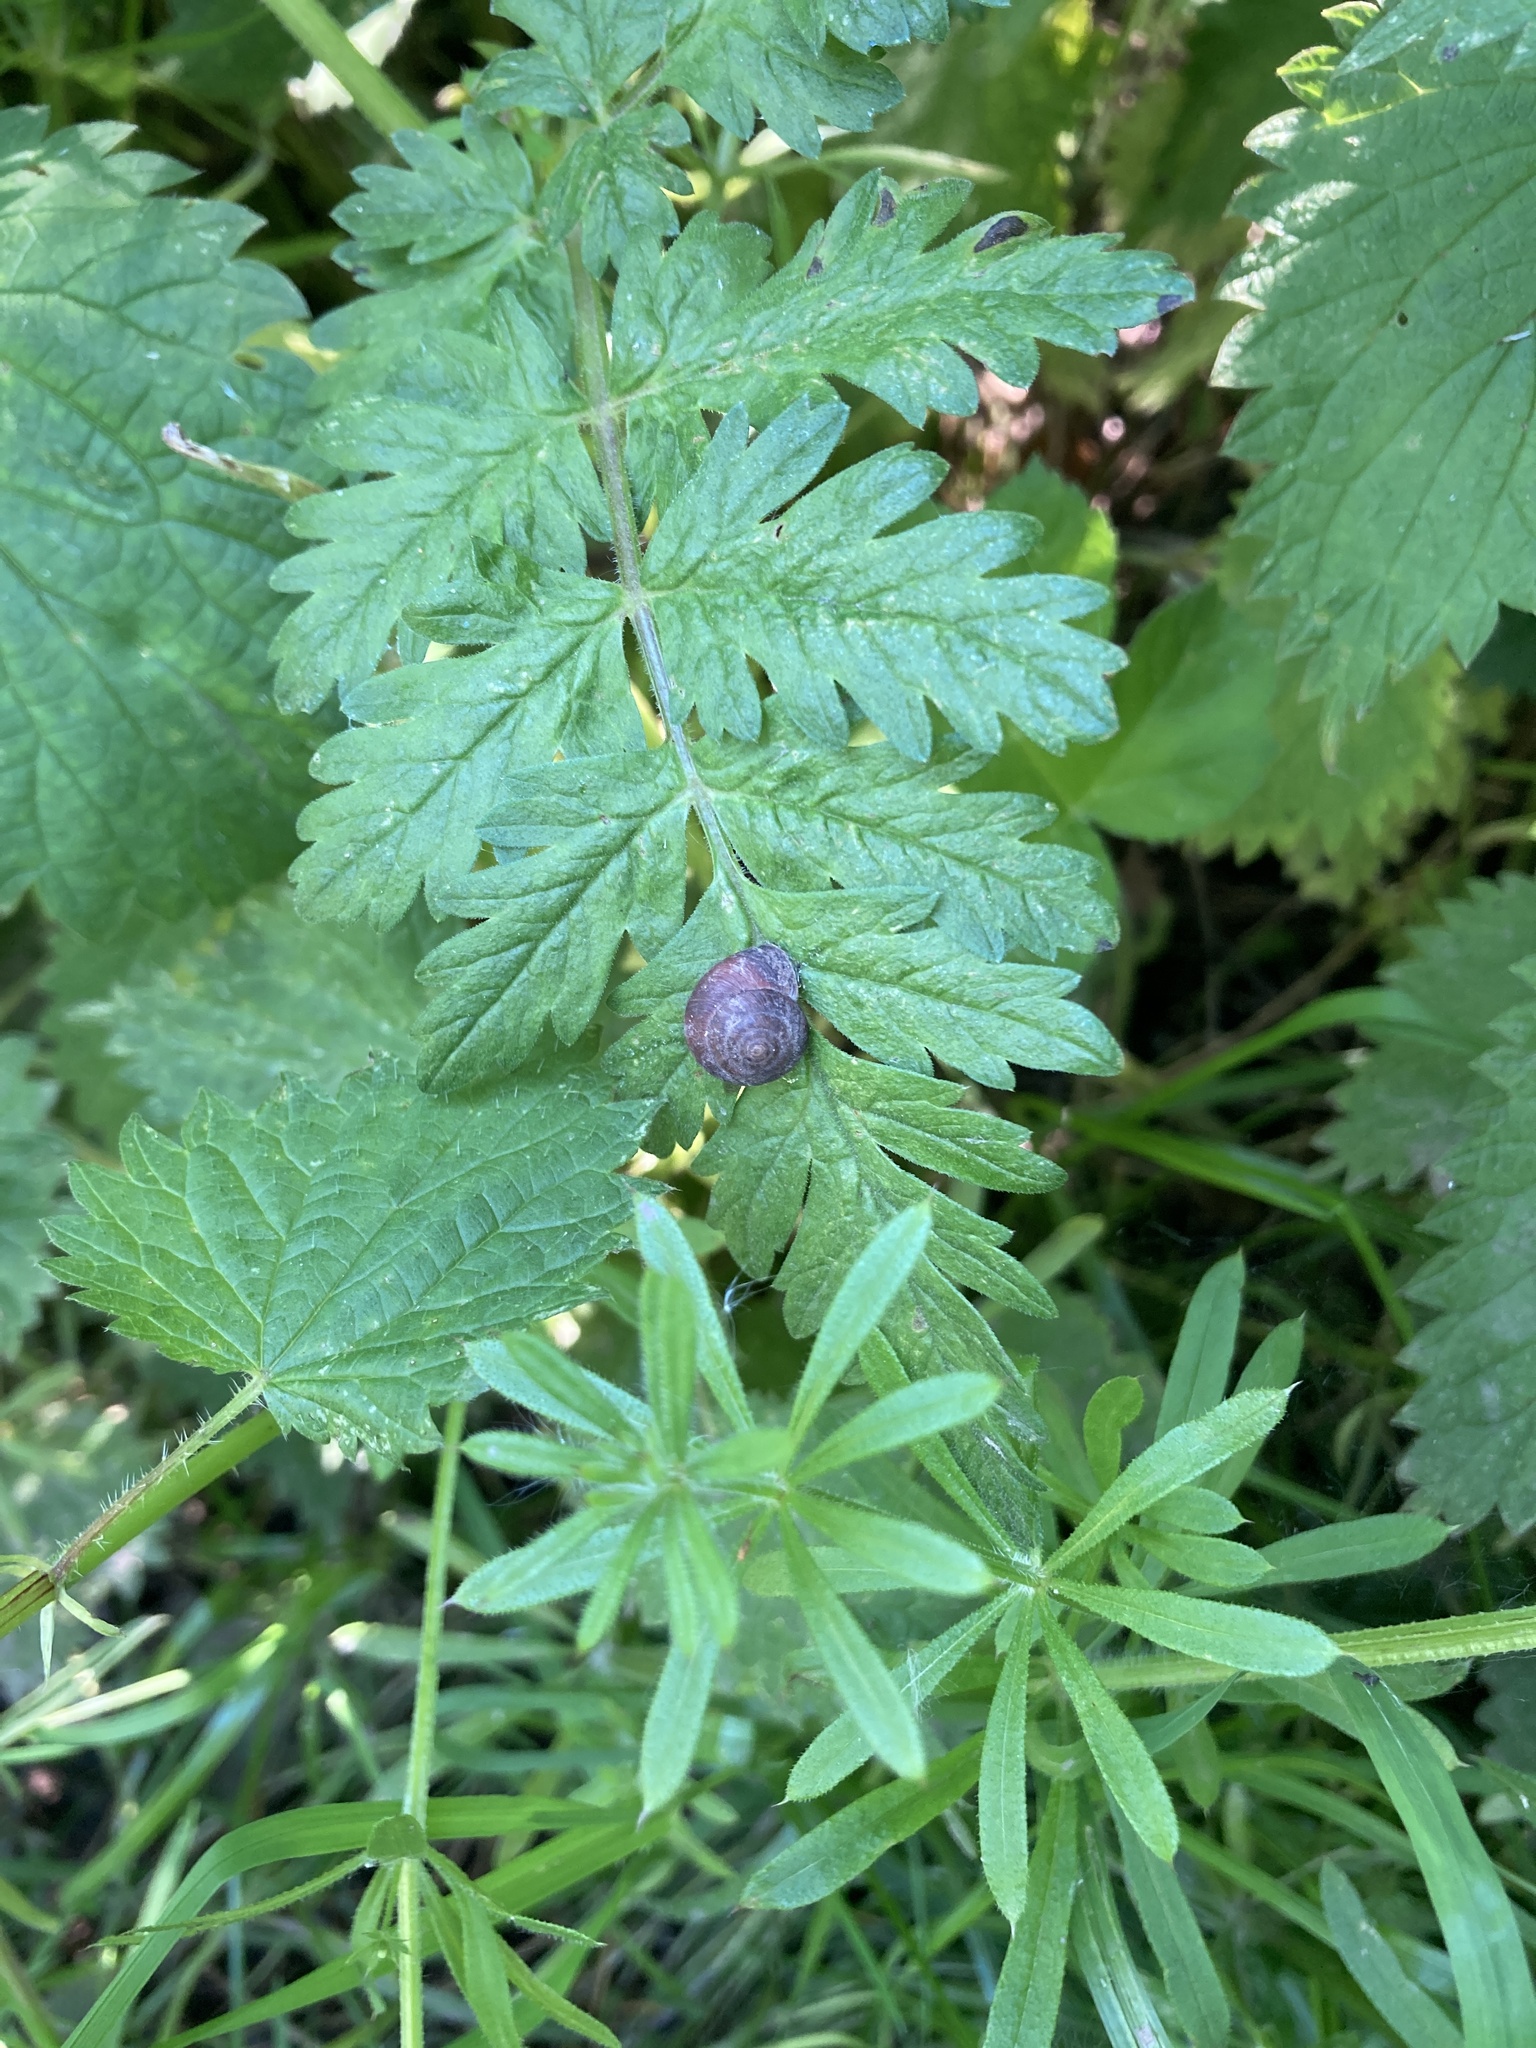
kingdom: Animalia
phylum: Mollusca
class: Gastropoda
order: Stylommatophora
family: Hygromiidae
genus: Trochulus
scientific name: Trochulus striolatus
